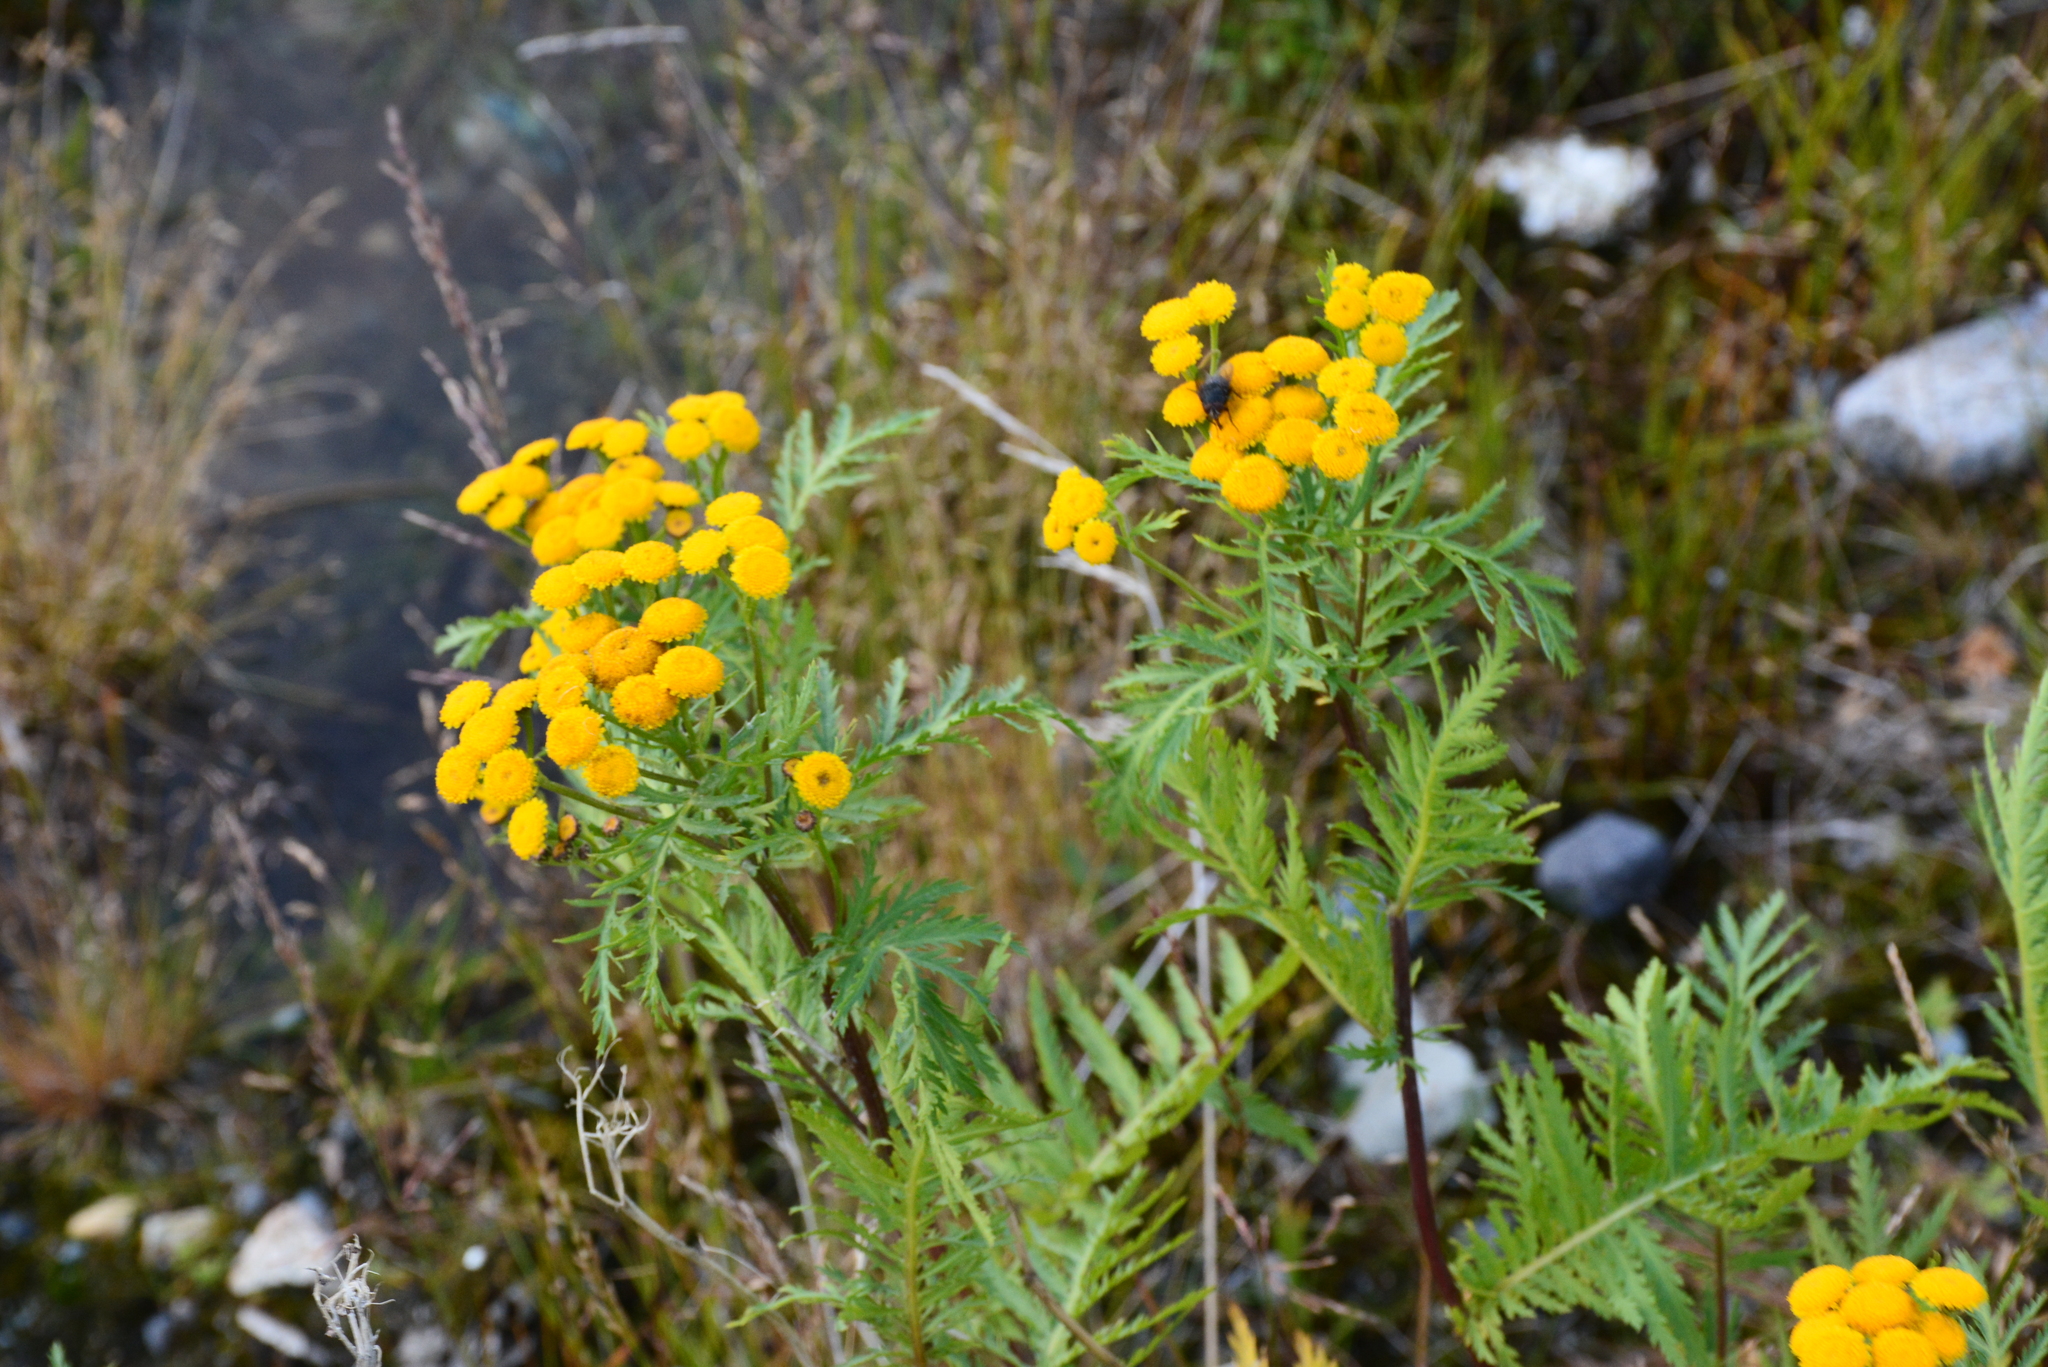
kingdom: Plantae
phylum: Tracheophyta
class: Magnoliopsida
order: Asterales
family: Asteraceae
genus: Tanacetum
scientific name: Tanacetum vulgare
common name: Common tansy
